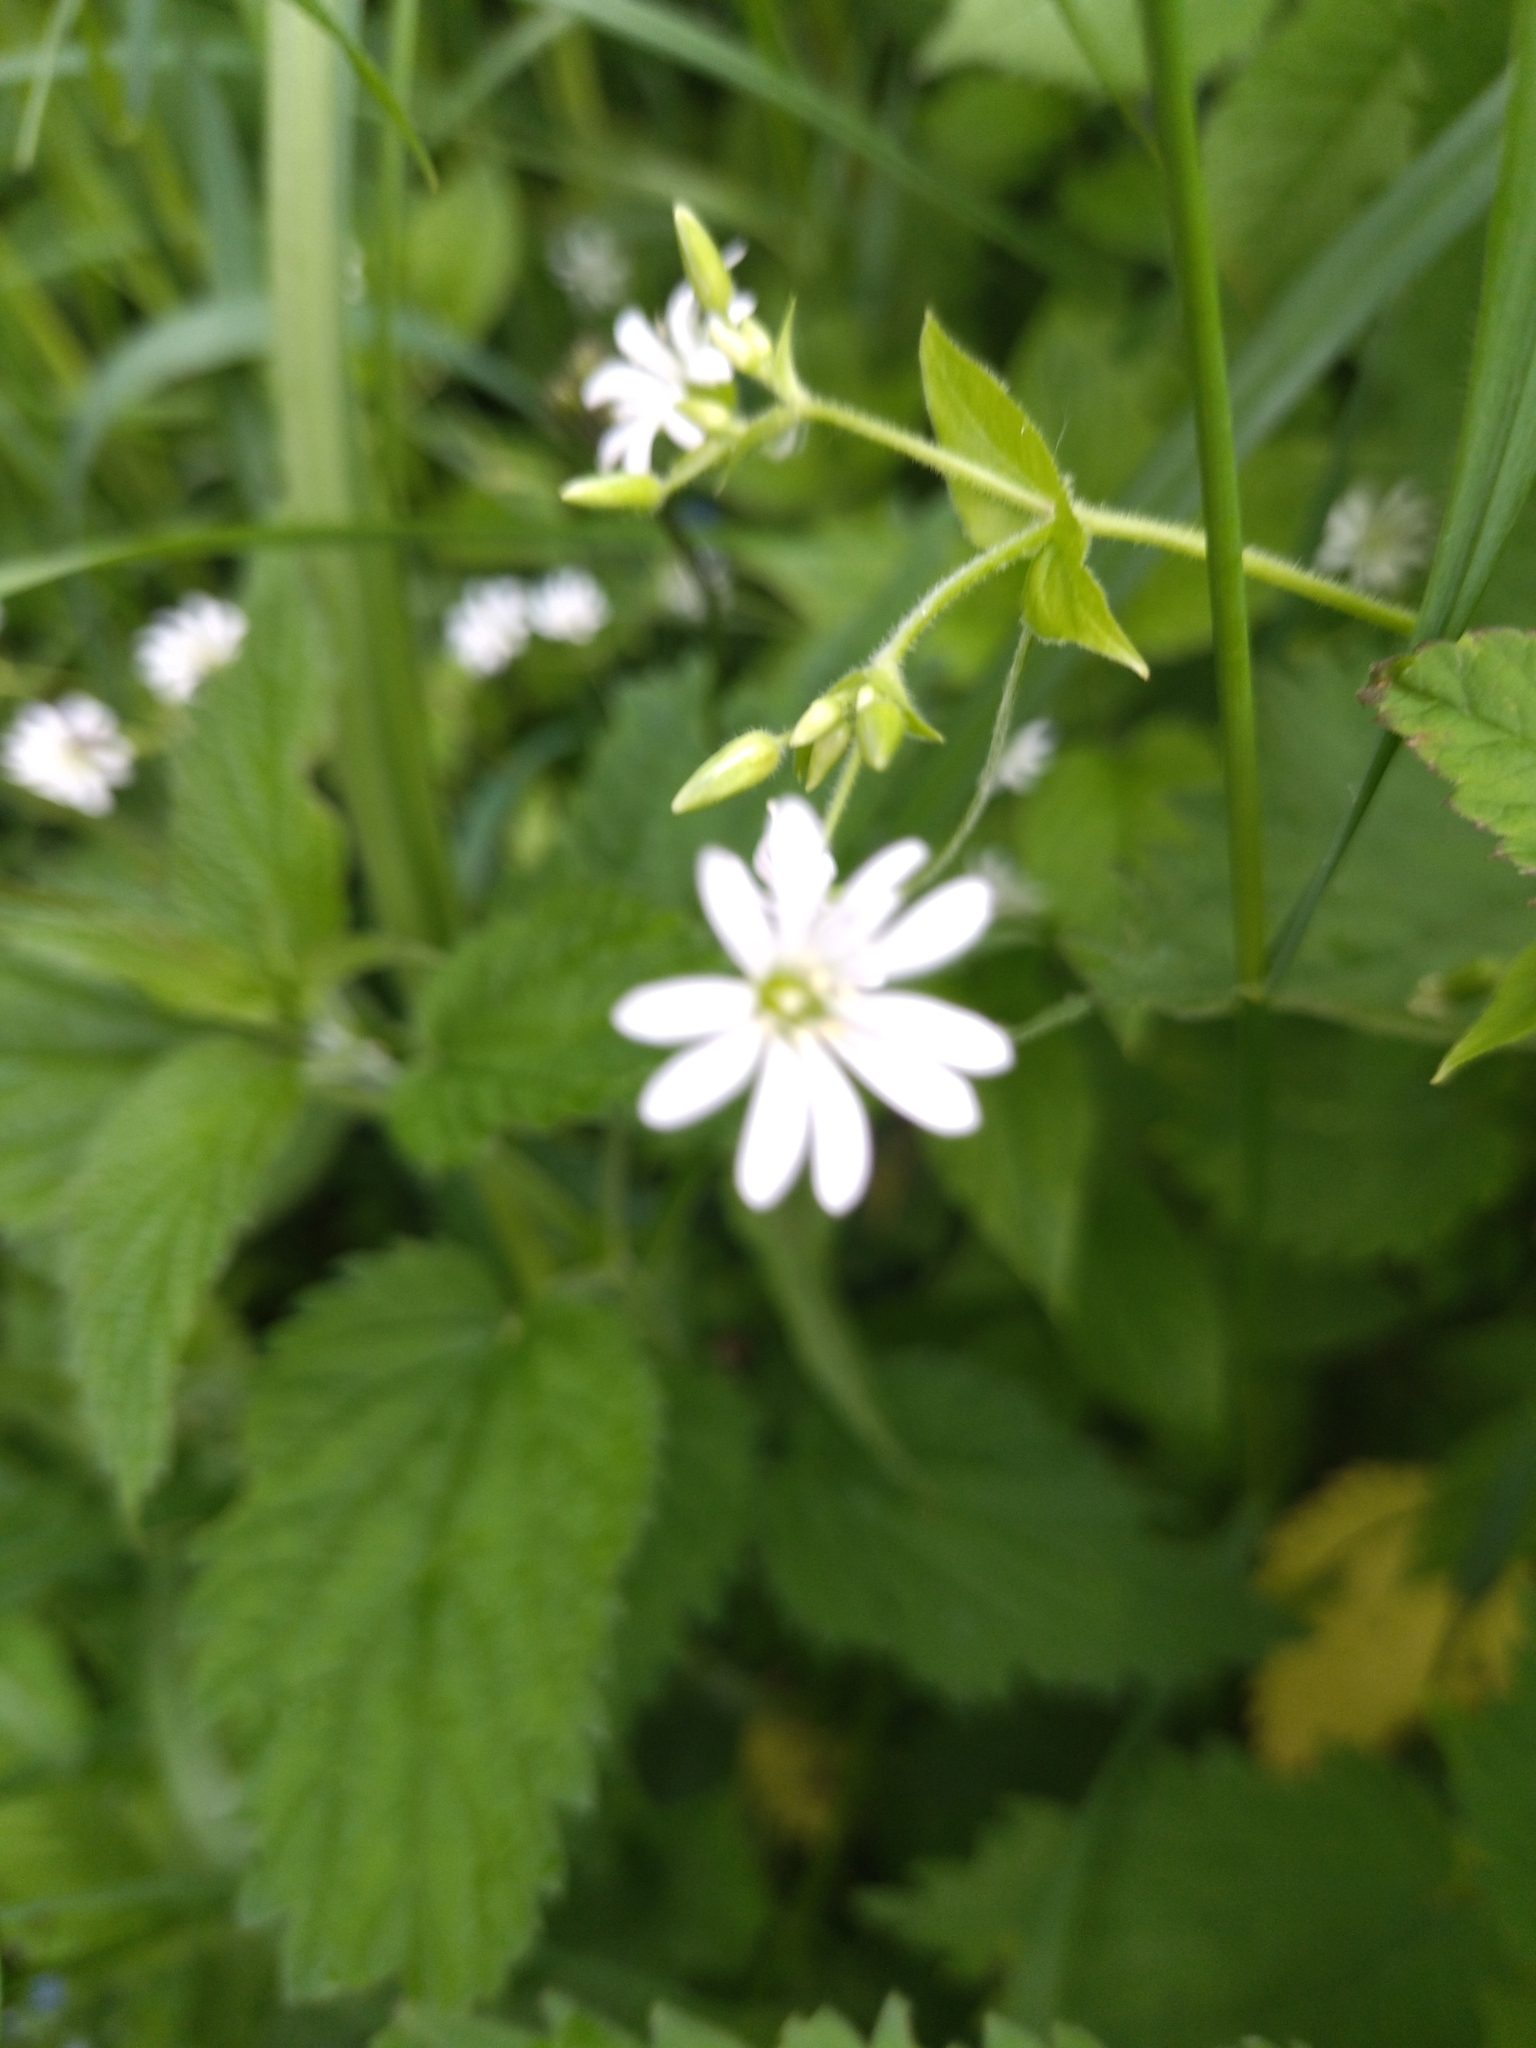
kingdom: Plantae
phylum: Tracheophyta
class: Magnoliopsida
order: Caryophyllales
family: Caryophyllaceae
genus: Stellaria
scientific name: Stellaria nemorum
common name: Wood stitchwort
